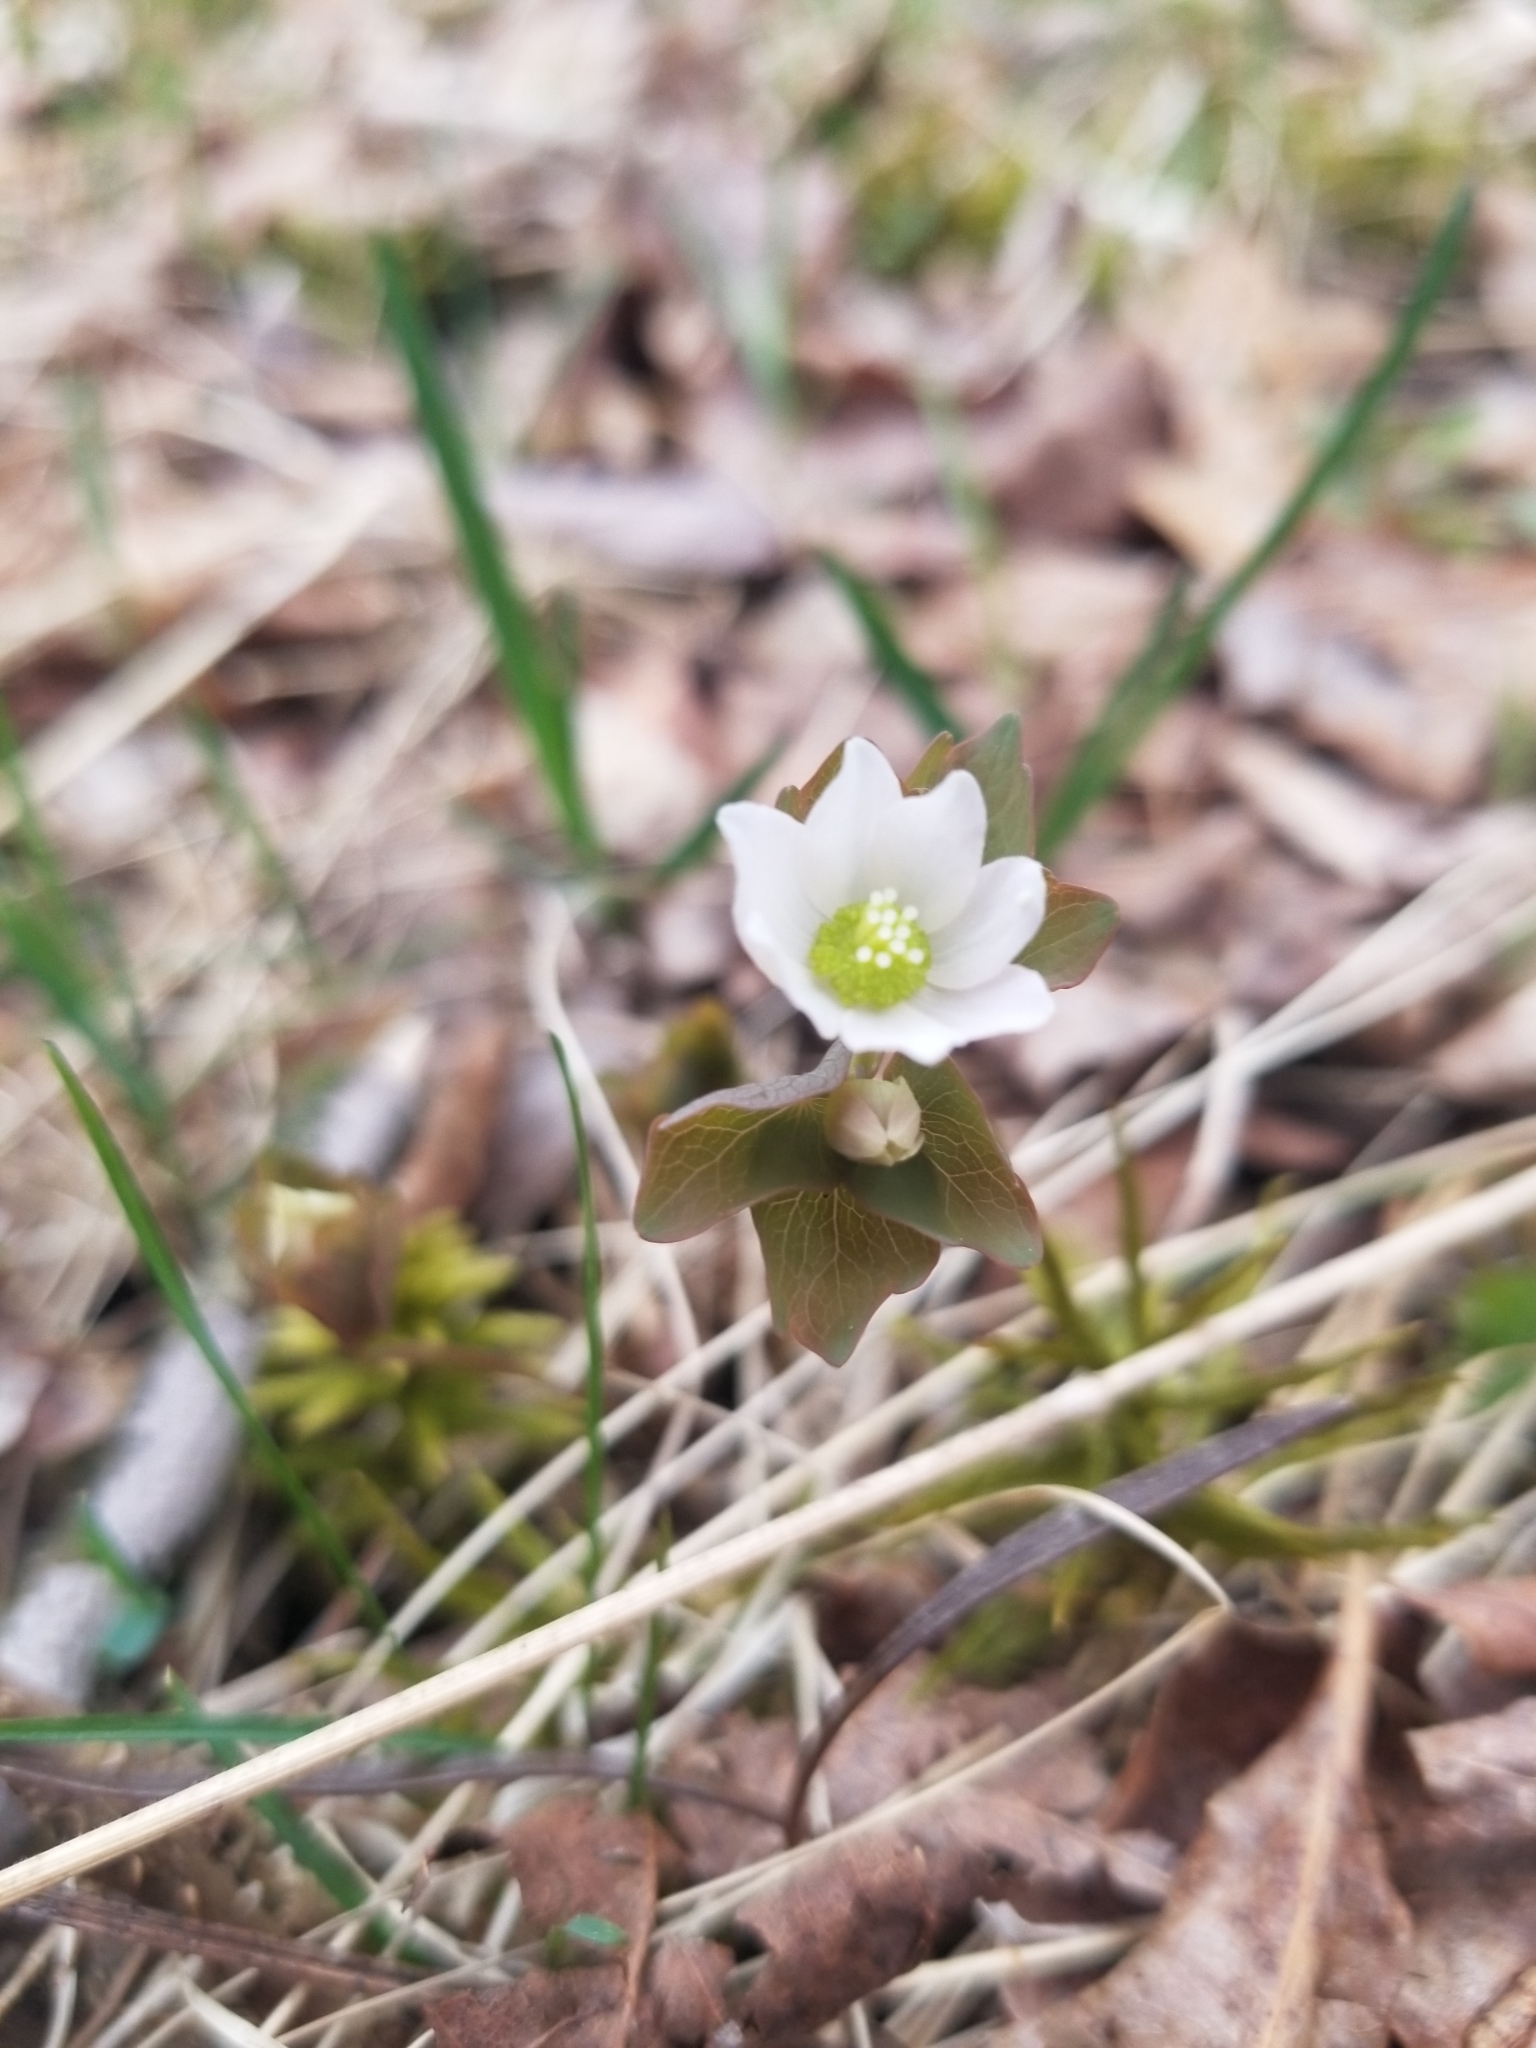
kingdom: Plantae
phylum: Tracheophyta
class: Magnoliopsida
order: Ranunculales
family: Ranunculaceae
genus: Thalictrum
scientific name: Thalictrum thalictroides
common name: Rue-anemone
